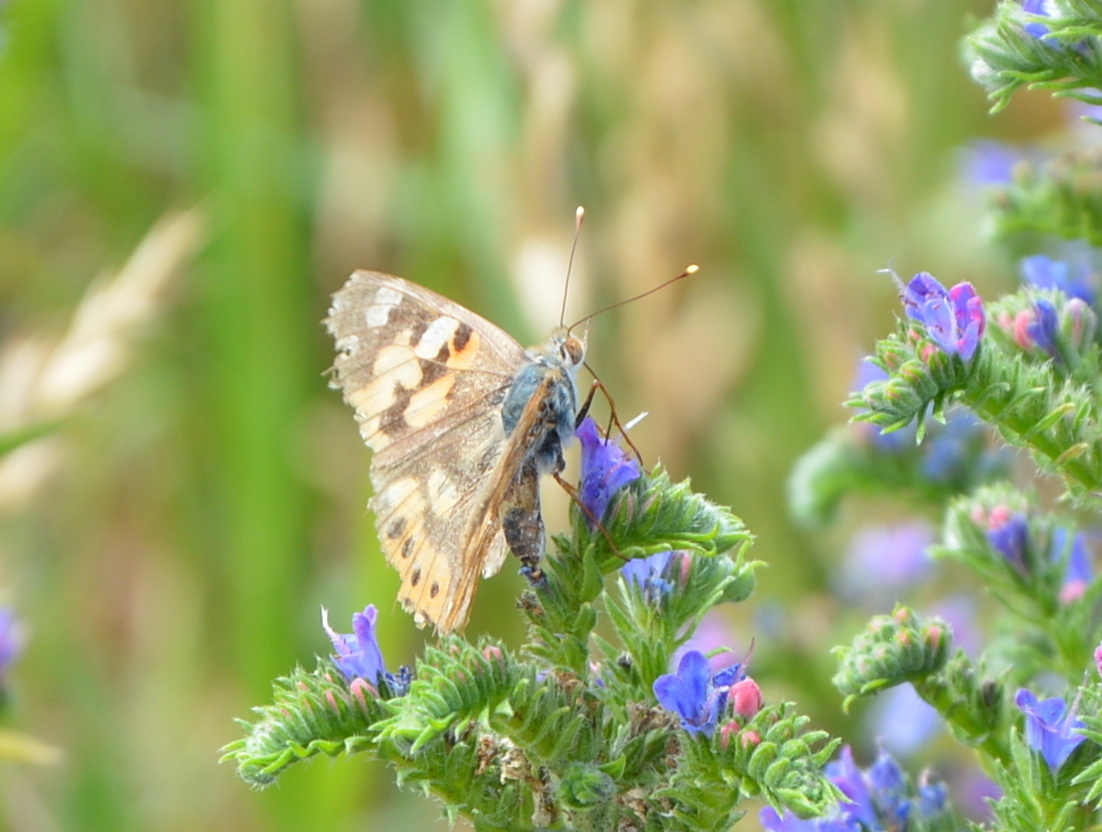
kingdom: Animalia
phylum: Arthropoda
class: Insecta
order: Lepidoptera
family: Nymphalidae
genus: Vanessa
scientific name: Vanessa cardui
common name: Painted lady
